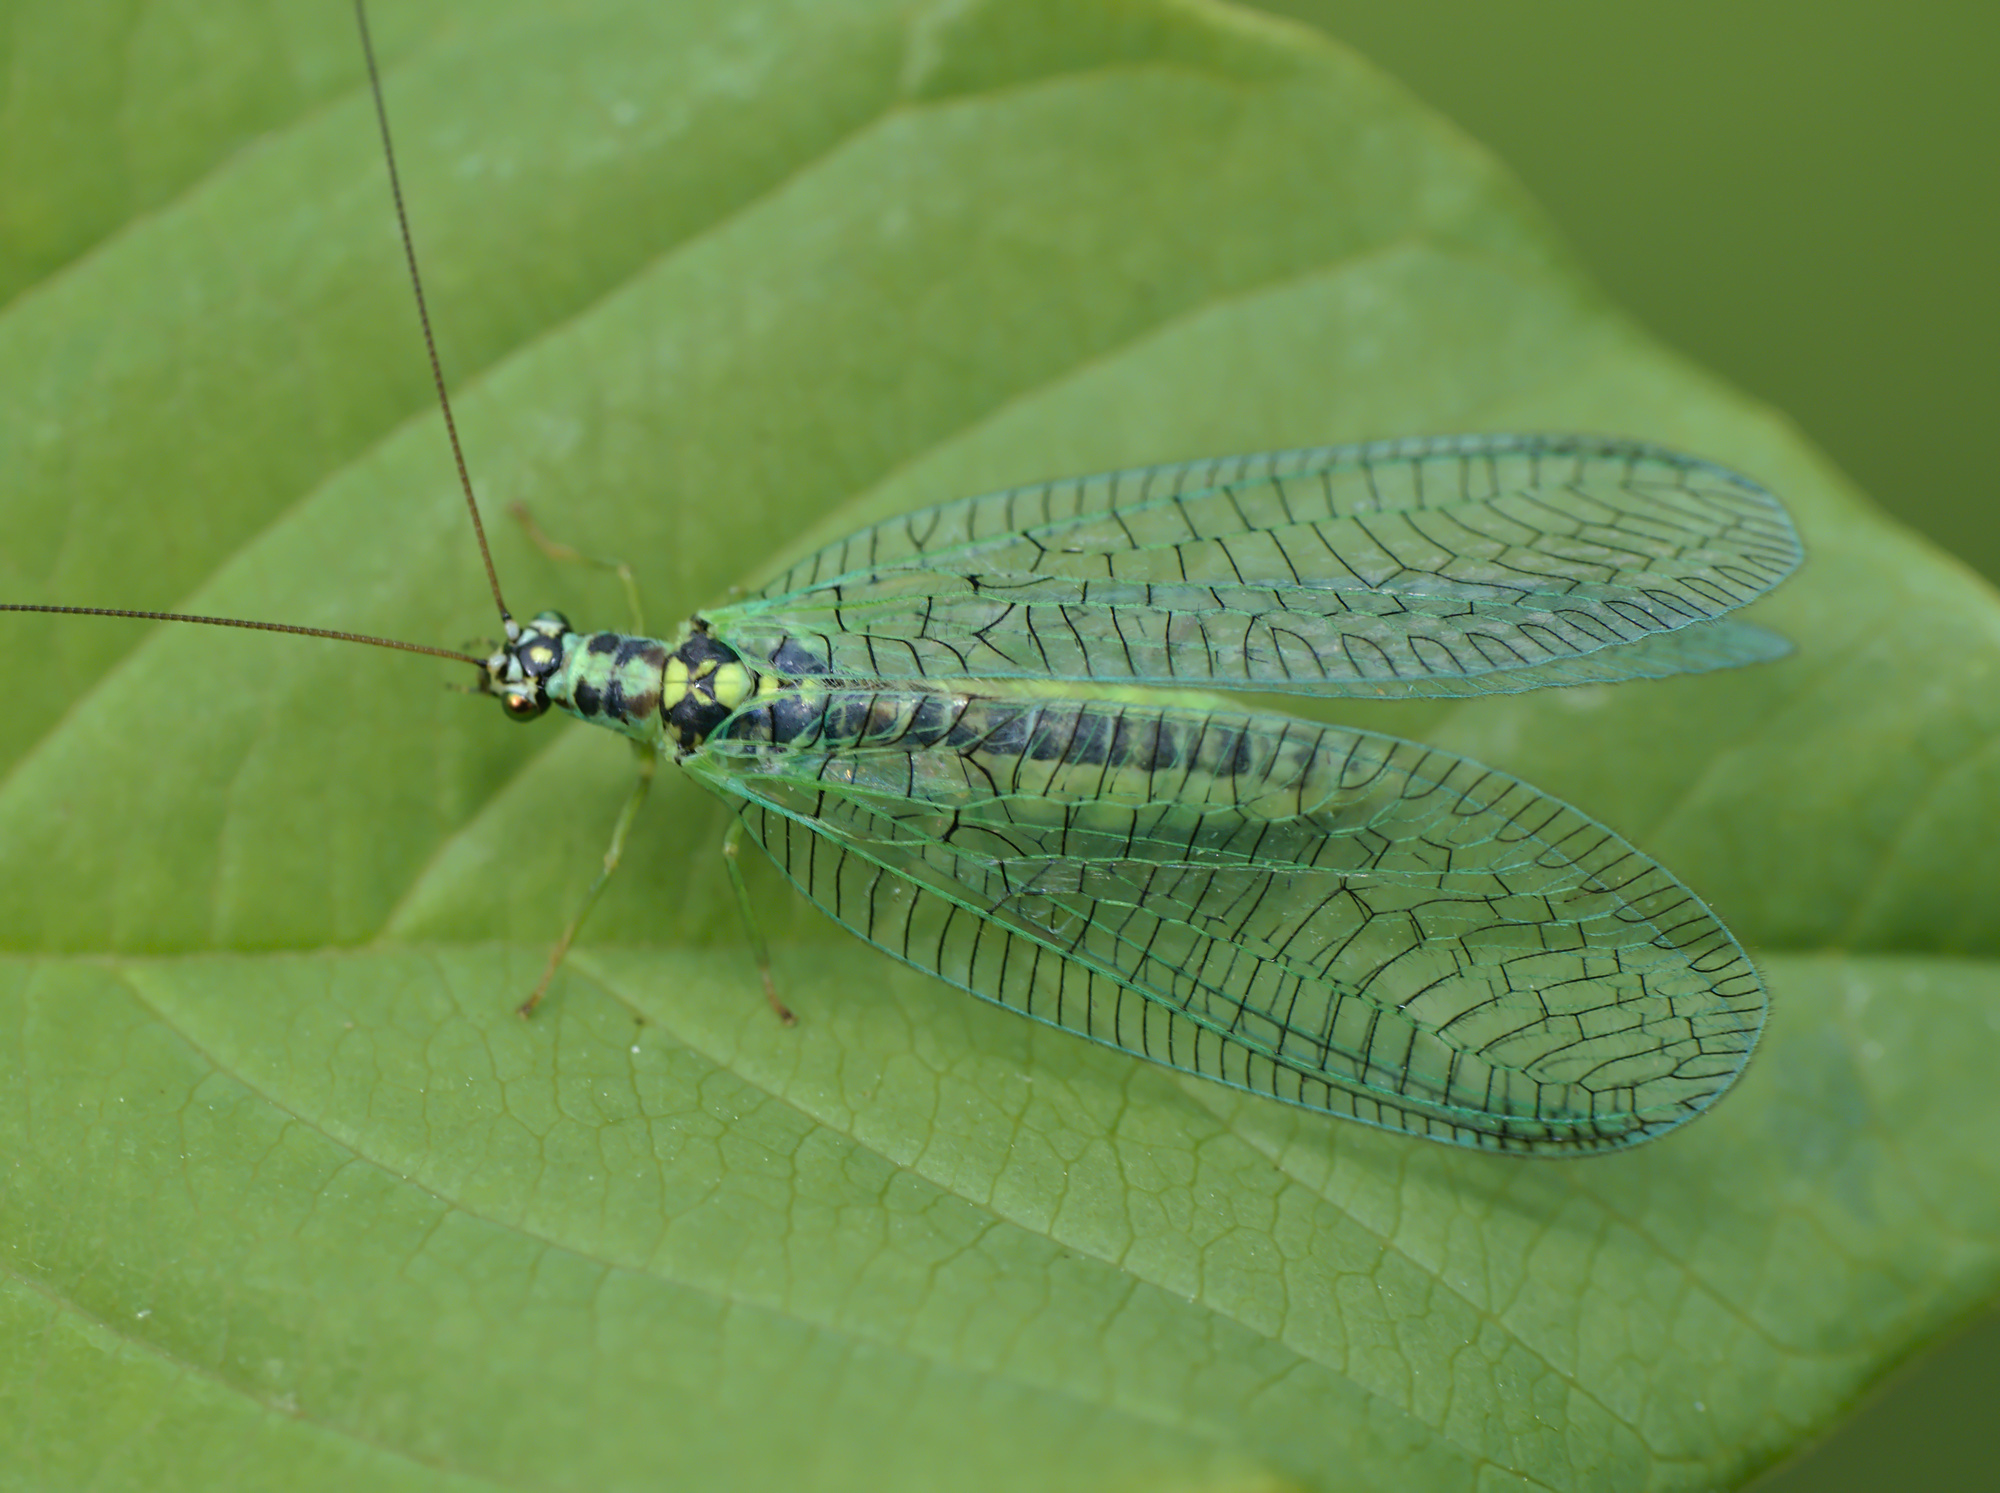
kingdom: Animalia
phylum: Arthropoda
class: Insecta
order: Neuroptera
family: Chrysopidae
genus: Chrysopa
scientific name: Chrysopa perla
